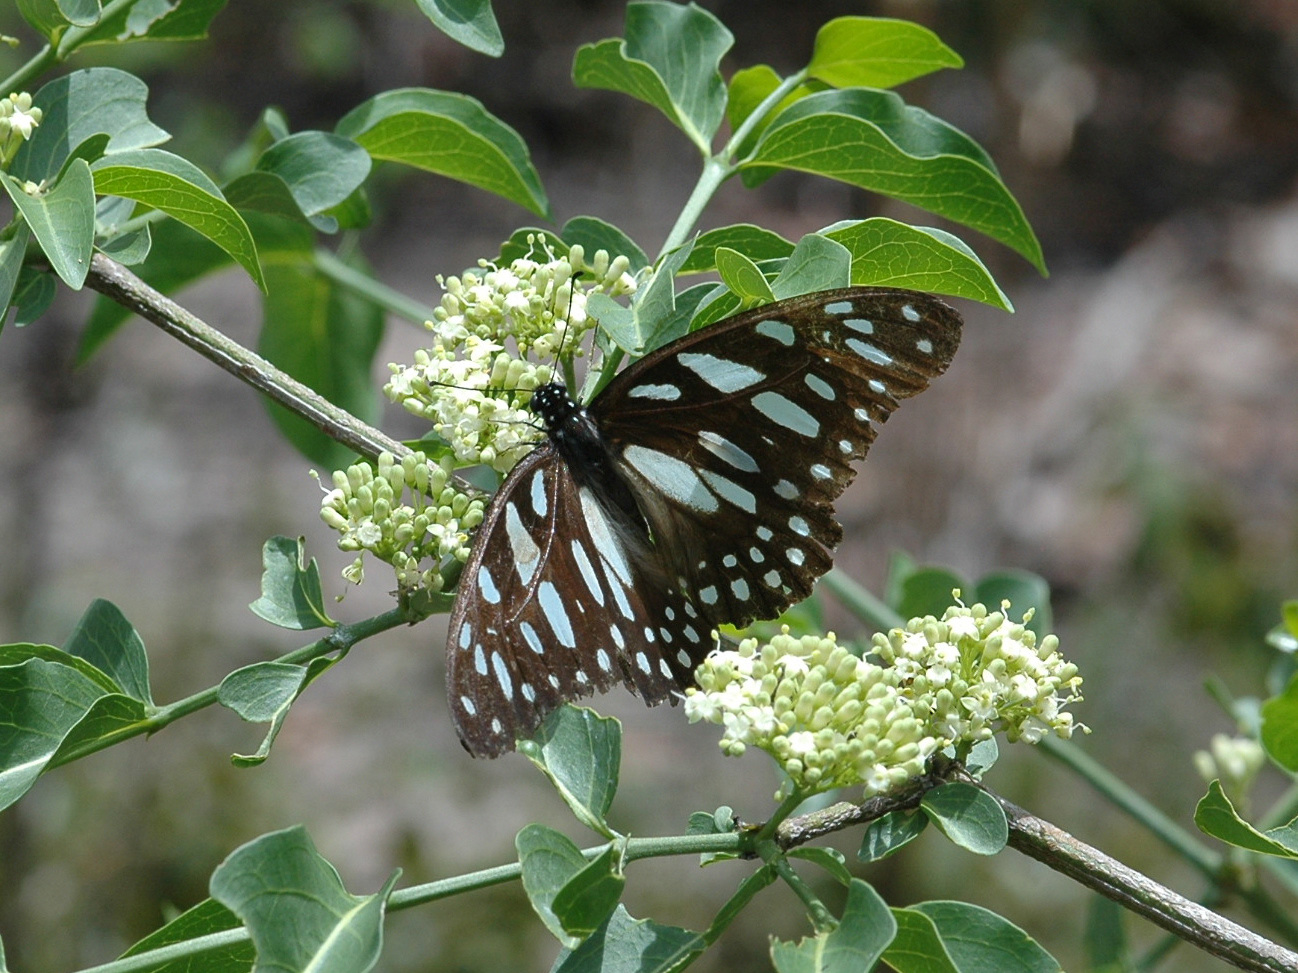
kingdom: Animalia
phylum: Arthropoda
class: Insecta
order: Lepidoptera
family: Papilionidae
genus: Graphium
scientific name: Graphium leonidas
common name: Common graphium
